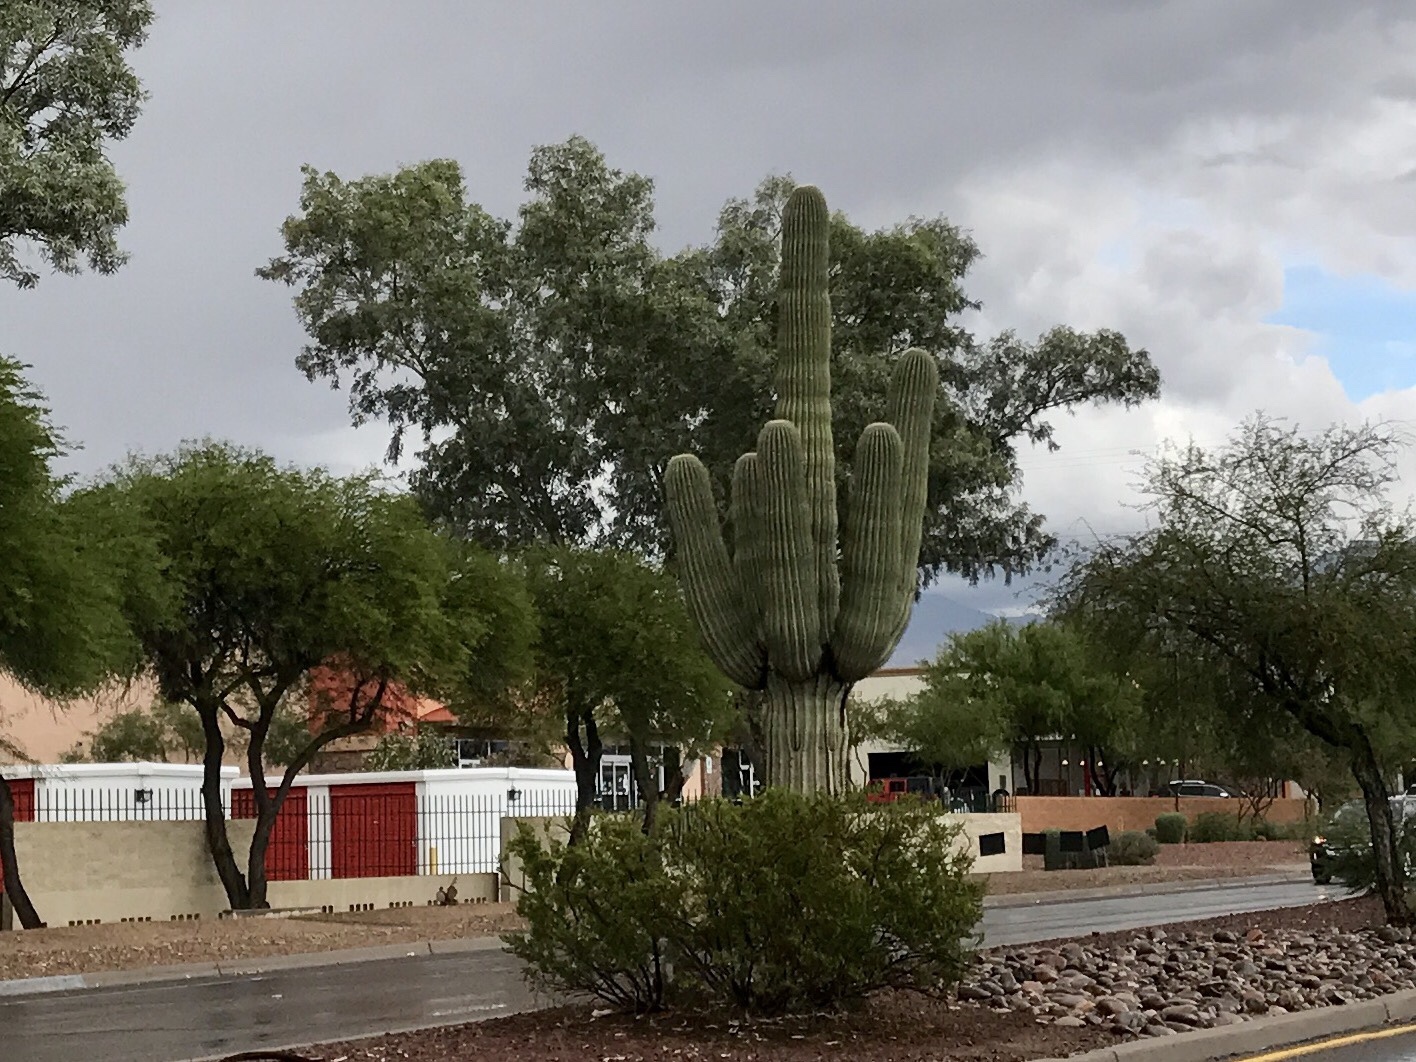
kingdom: Plantae
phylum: Tracheophyta
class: Magnoliopsida
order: Caryophyllales
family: Cactaceae
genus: Carnegiea
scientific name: Carnegiea gigantea
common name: Saguaro
